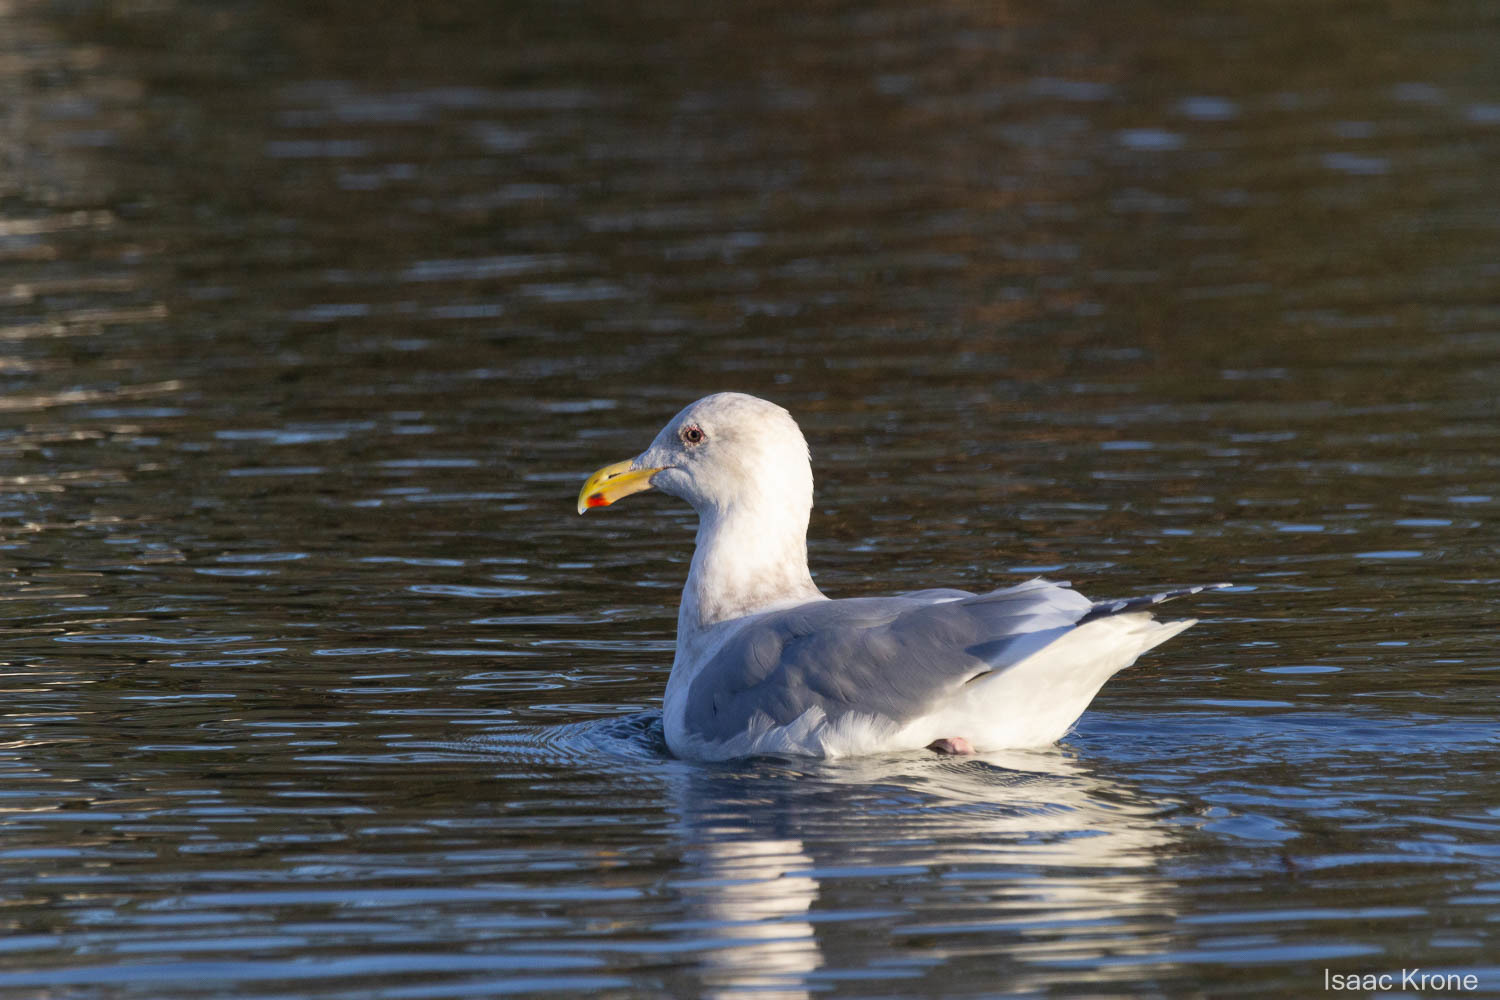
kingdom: Animalia
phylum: Chordata
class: Aves
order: Charadriiformes
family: Laridae
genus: Larus
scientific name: Larus occidentalis
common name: Western gull
